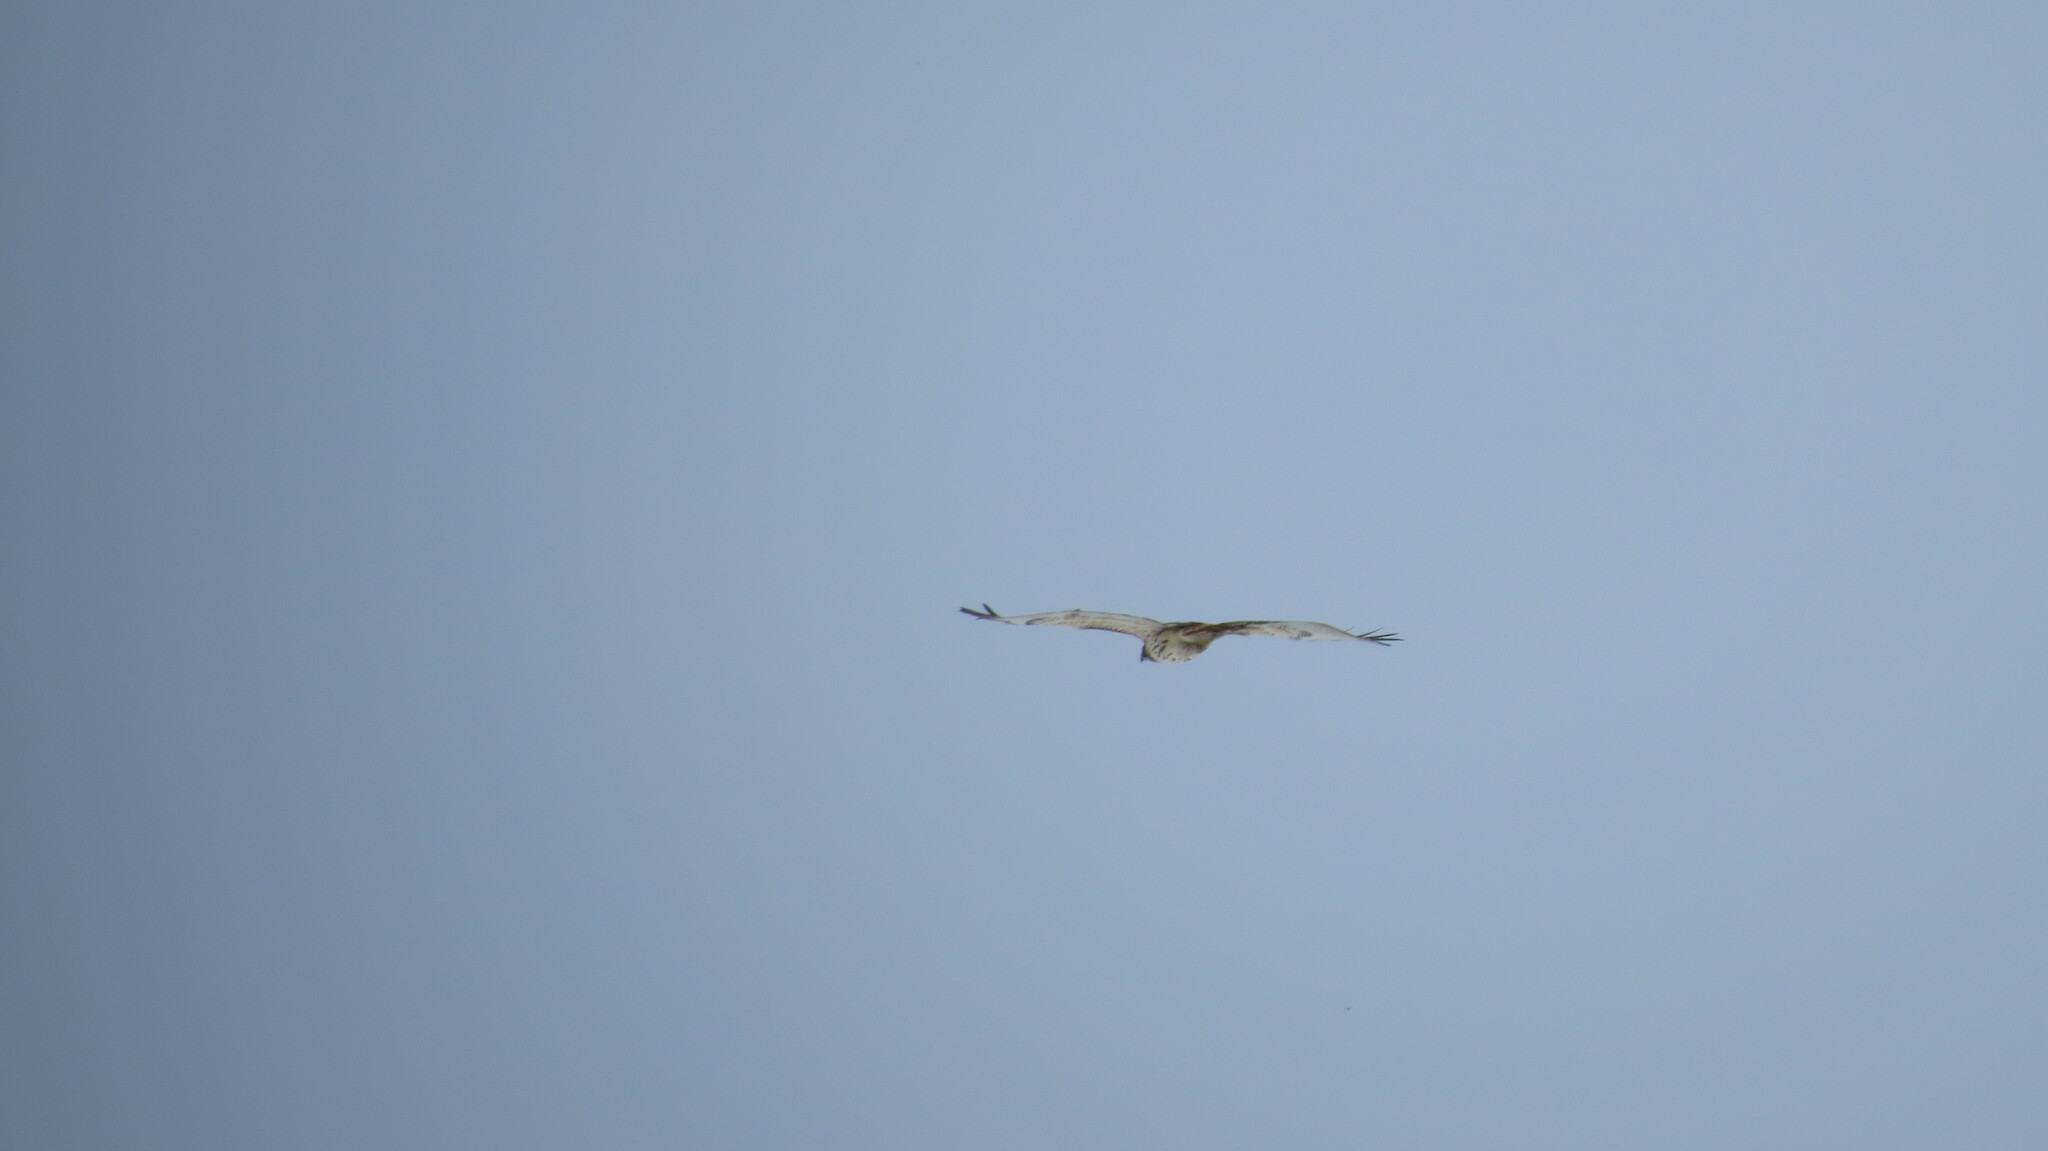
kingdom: Animalia
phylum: Chordata
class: Aves
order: Accipitriformes
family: Accipitridae
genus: Buteo
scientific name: Buteo jamaicensis
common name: Red-tailed hawk
